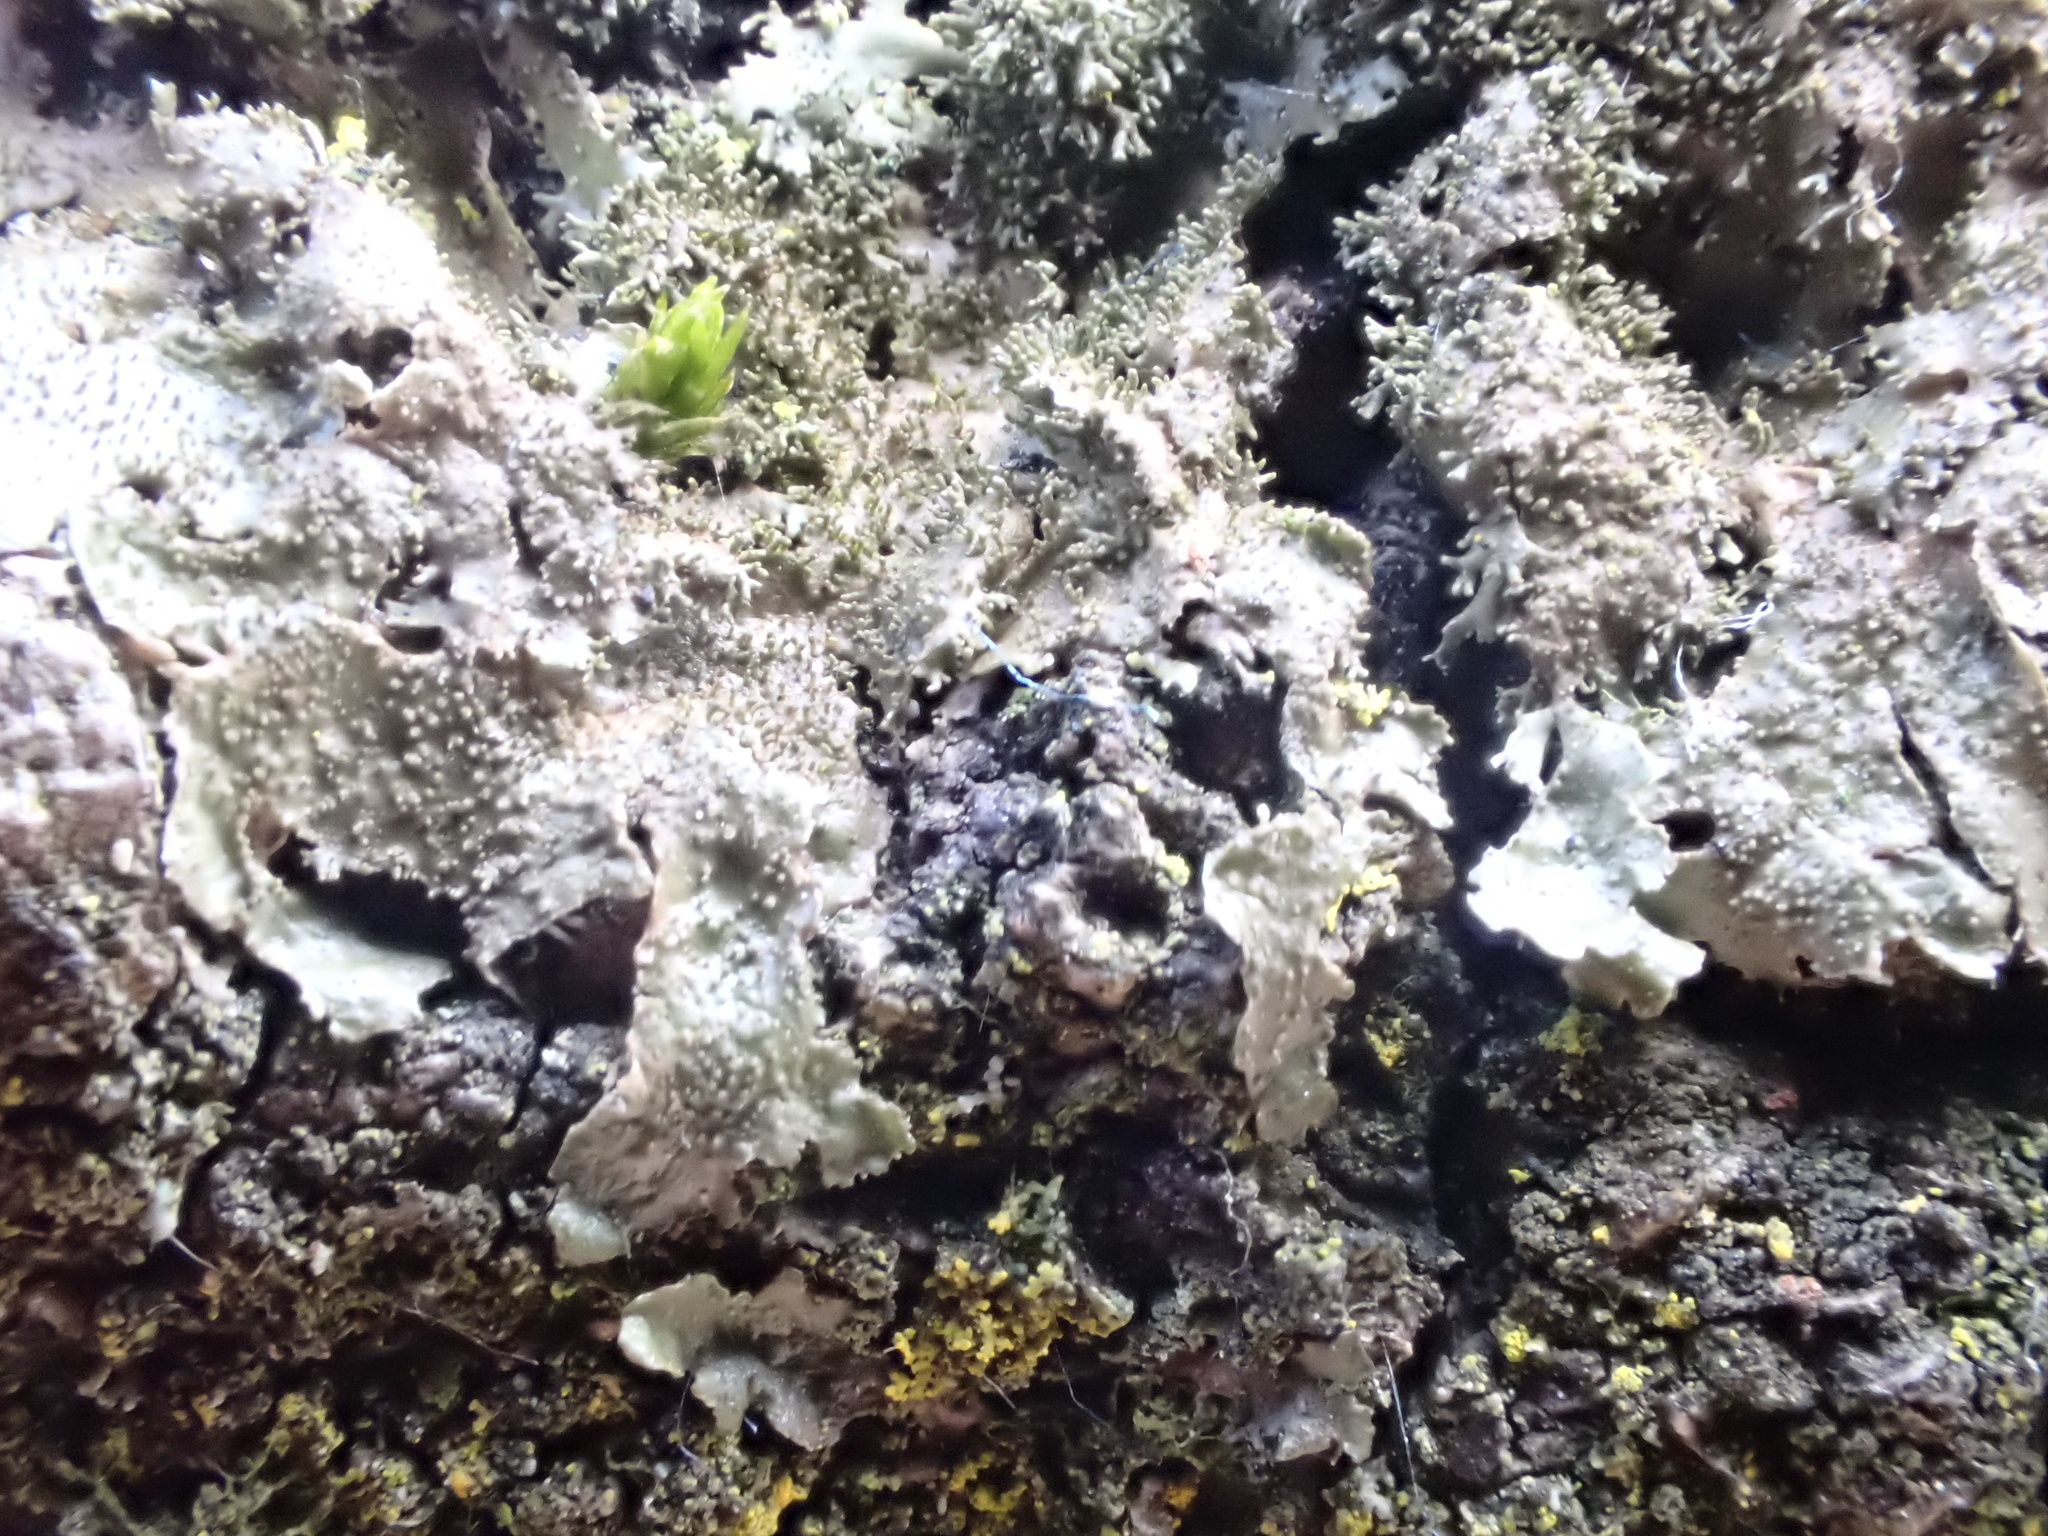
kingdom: Fungi
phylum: Ascomycota
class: Lecanoromycetes
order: Lecanorales
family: Parmeliaceae
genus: Melanohalea
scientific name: Melanohalea elegantula
